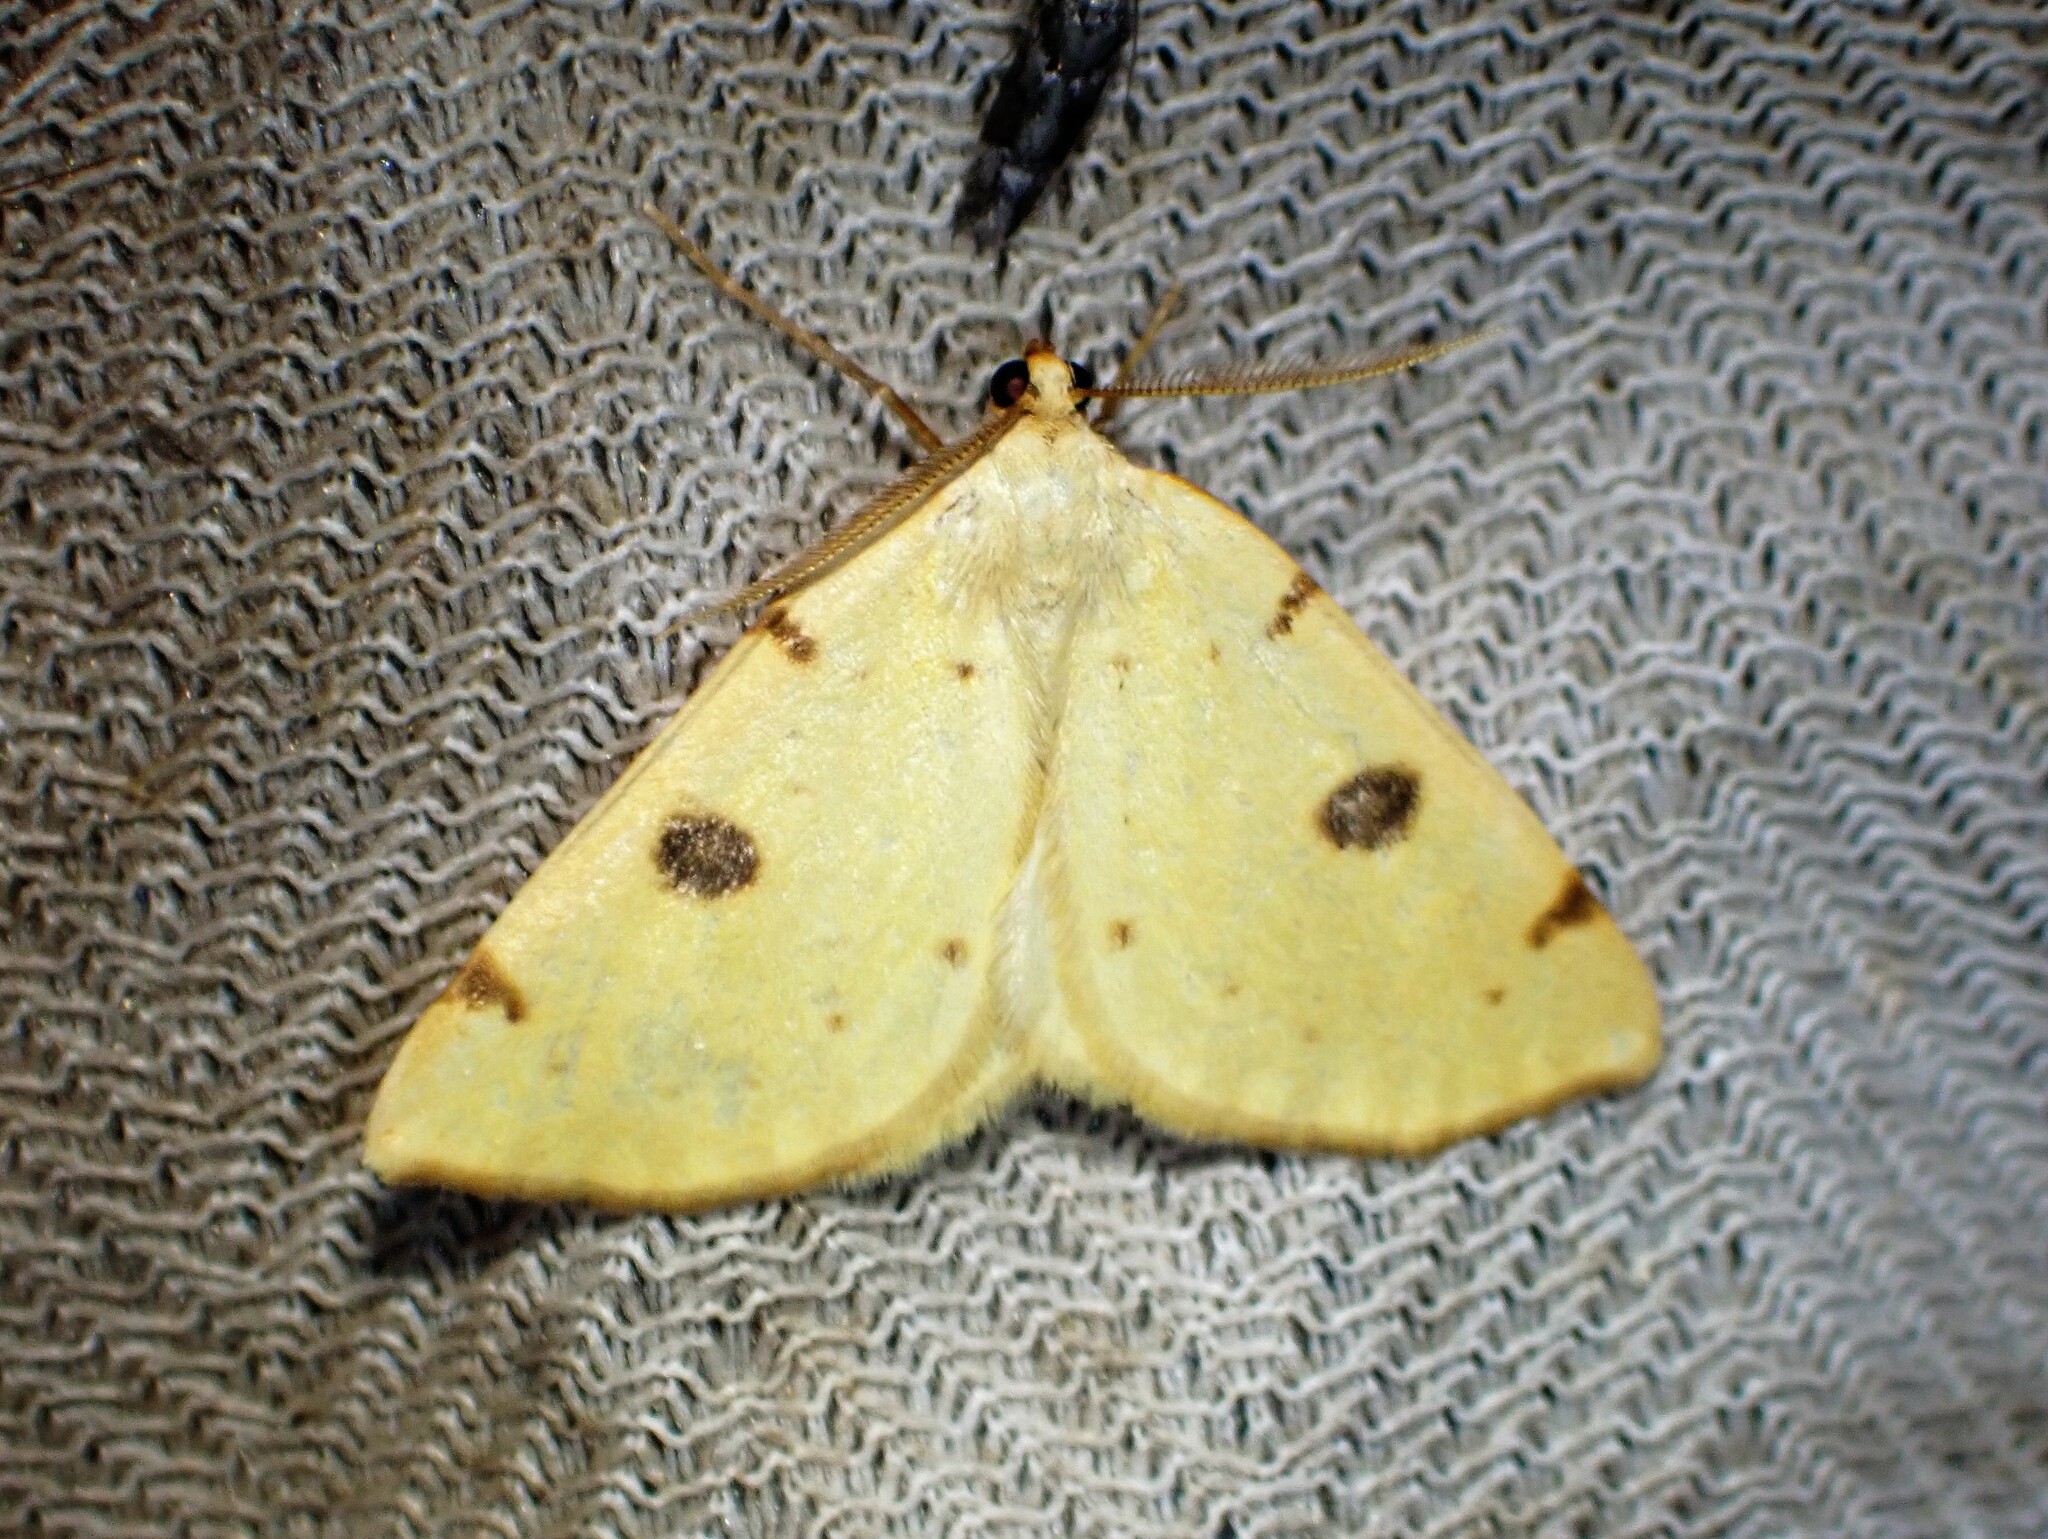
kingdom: Animalia
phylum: Arthropoda
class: Insecta
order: Lepidoptera
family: Geometridae
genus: Hesperumia
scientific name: Hesperumia sulphuraria
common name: Sulphur moth
